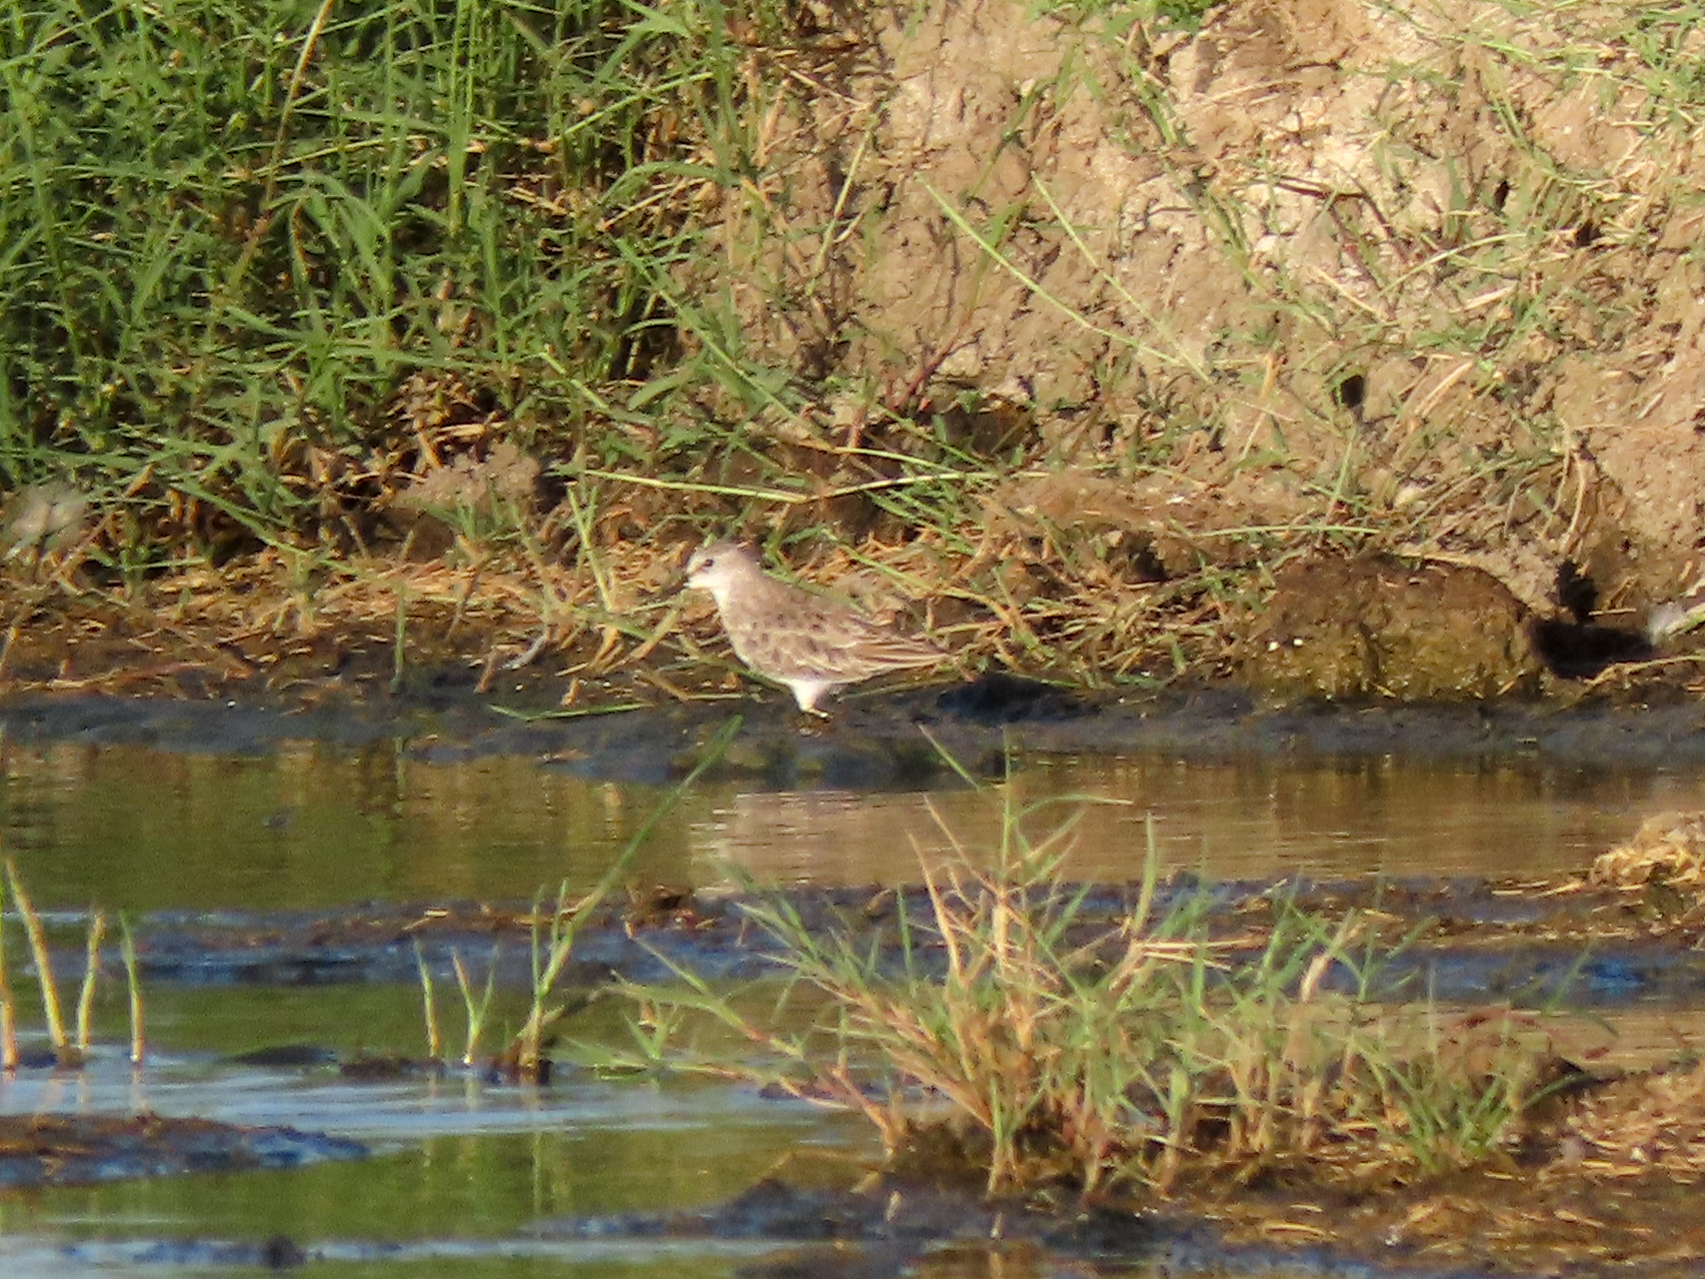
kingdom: Animalia
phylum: Chordata
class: Aves
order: Charadriiformes
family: Scolopacidae
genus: Calidris
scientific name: Calidris minuta
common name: Little stint
